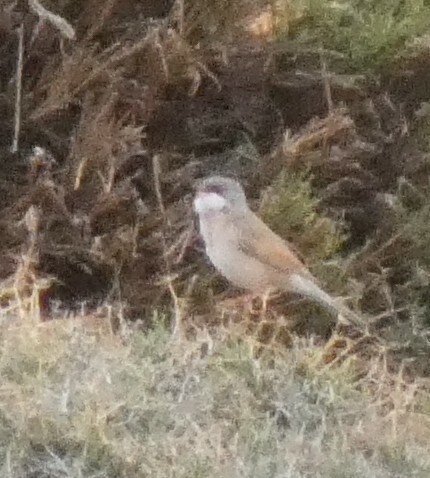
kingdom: Animalia
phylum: Chordata
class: Aves
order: Passeriformes
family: Sylviidae
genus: Sylvia
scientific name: Sylvia conspicillata
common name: Spectacled warbler
